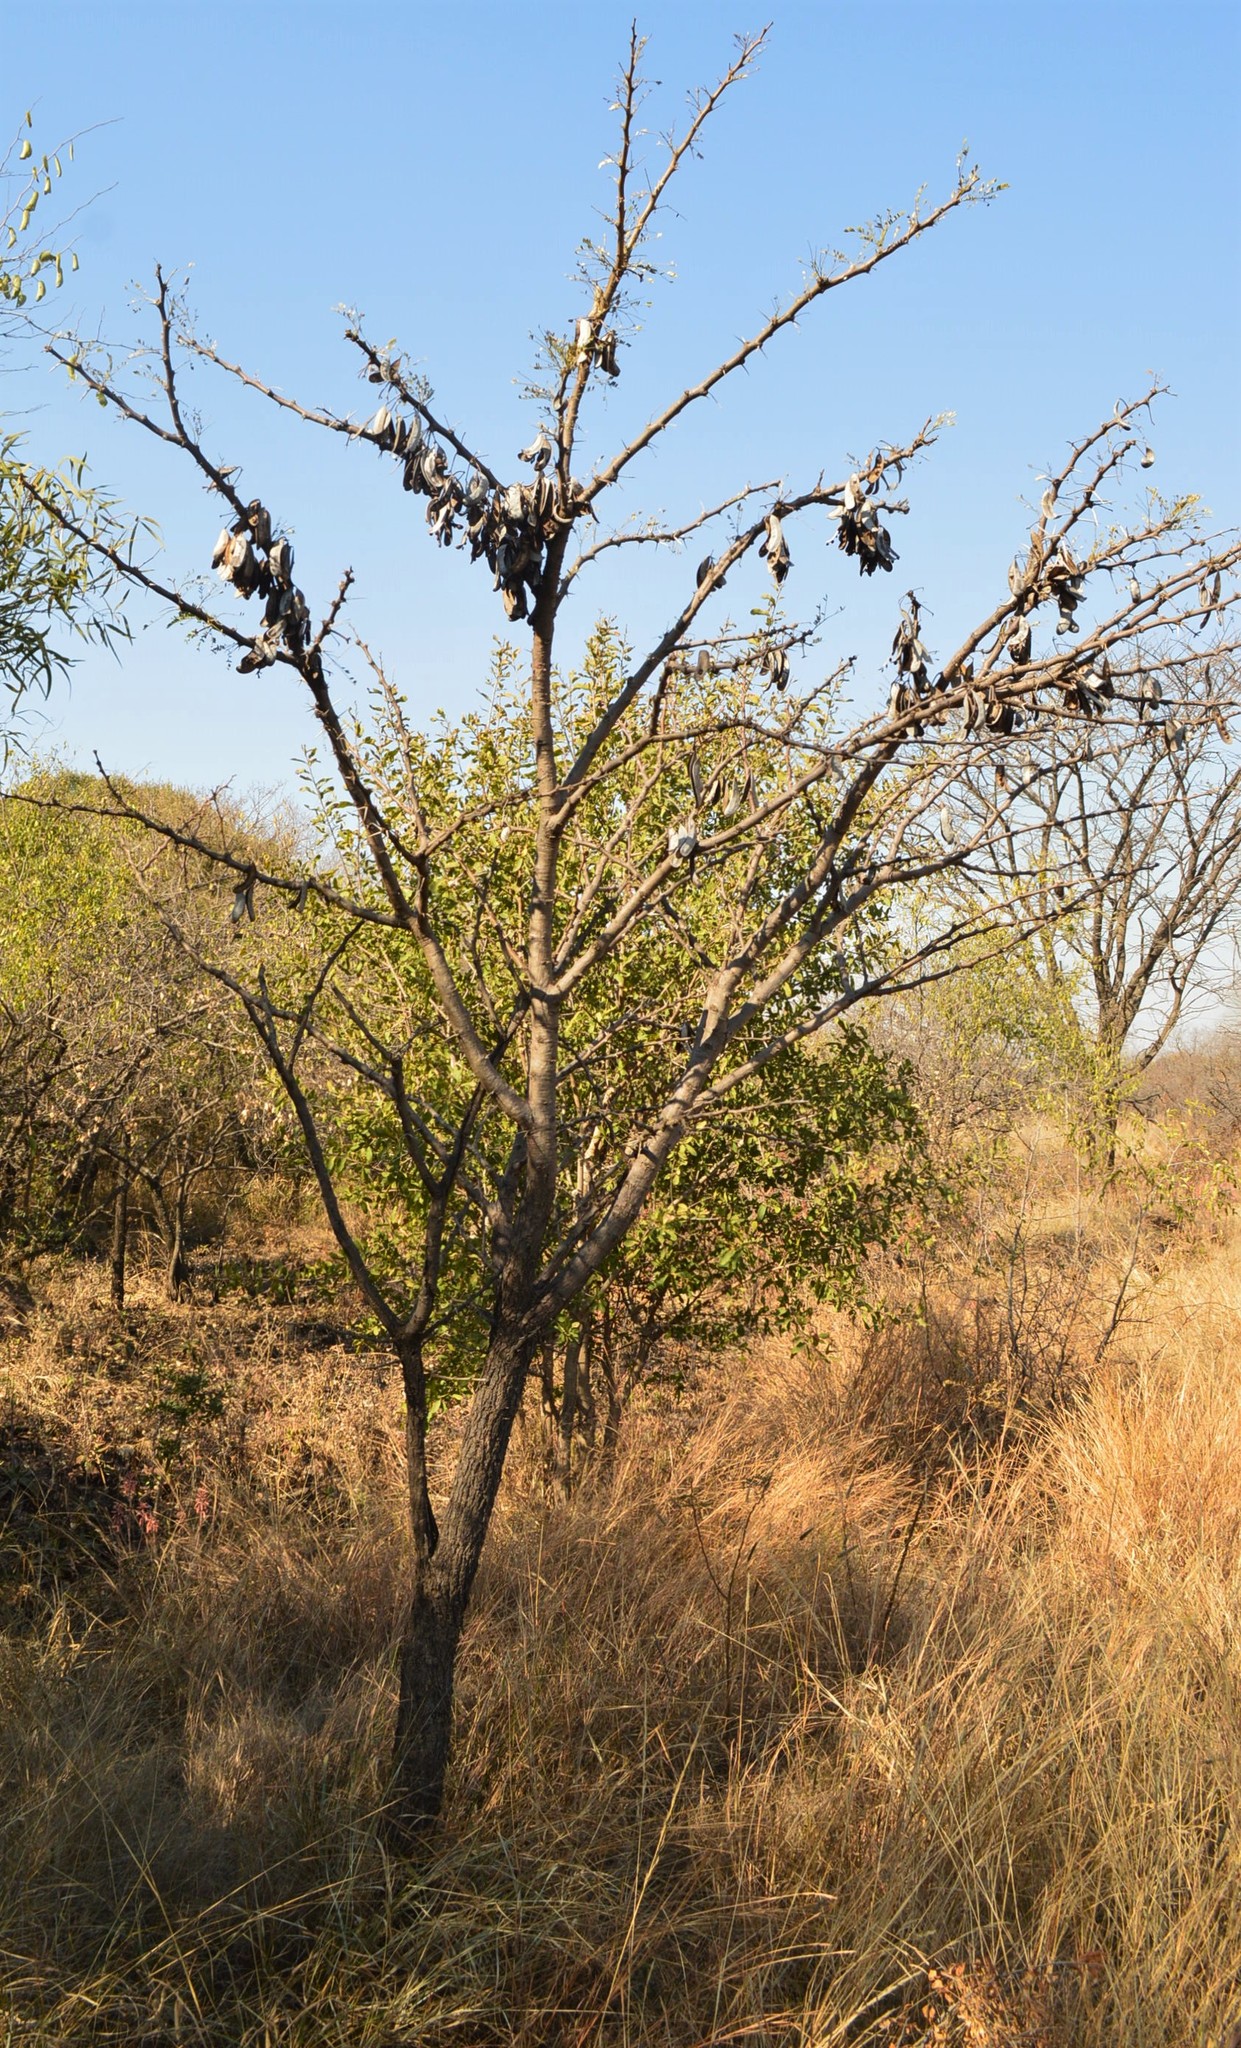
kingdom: Plantae
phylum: Tracheophyta
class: Magnoliopsida
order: Fabales
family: Fabaceae
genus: Vachellia
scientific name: Vachellia robusta
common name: Ankle thorn
